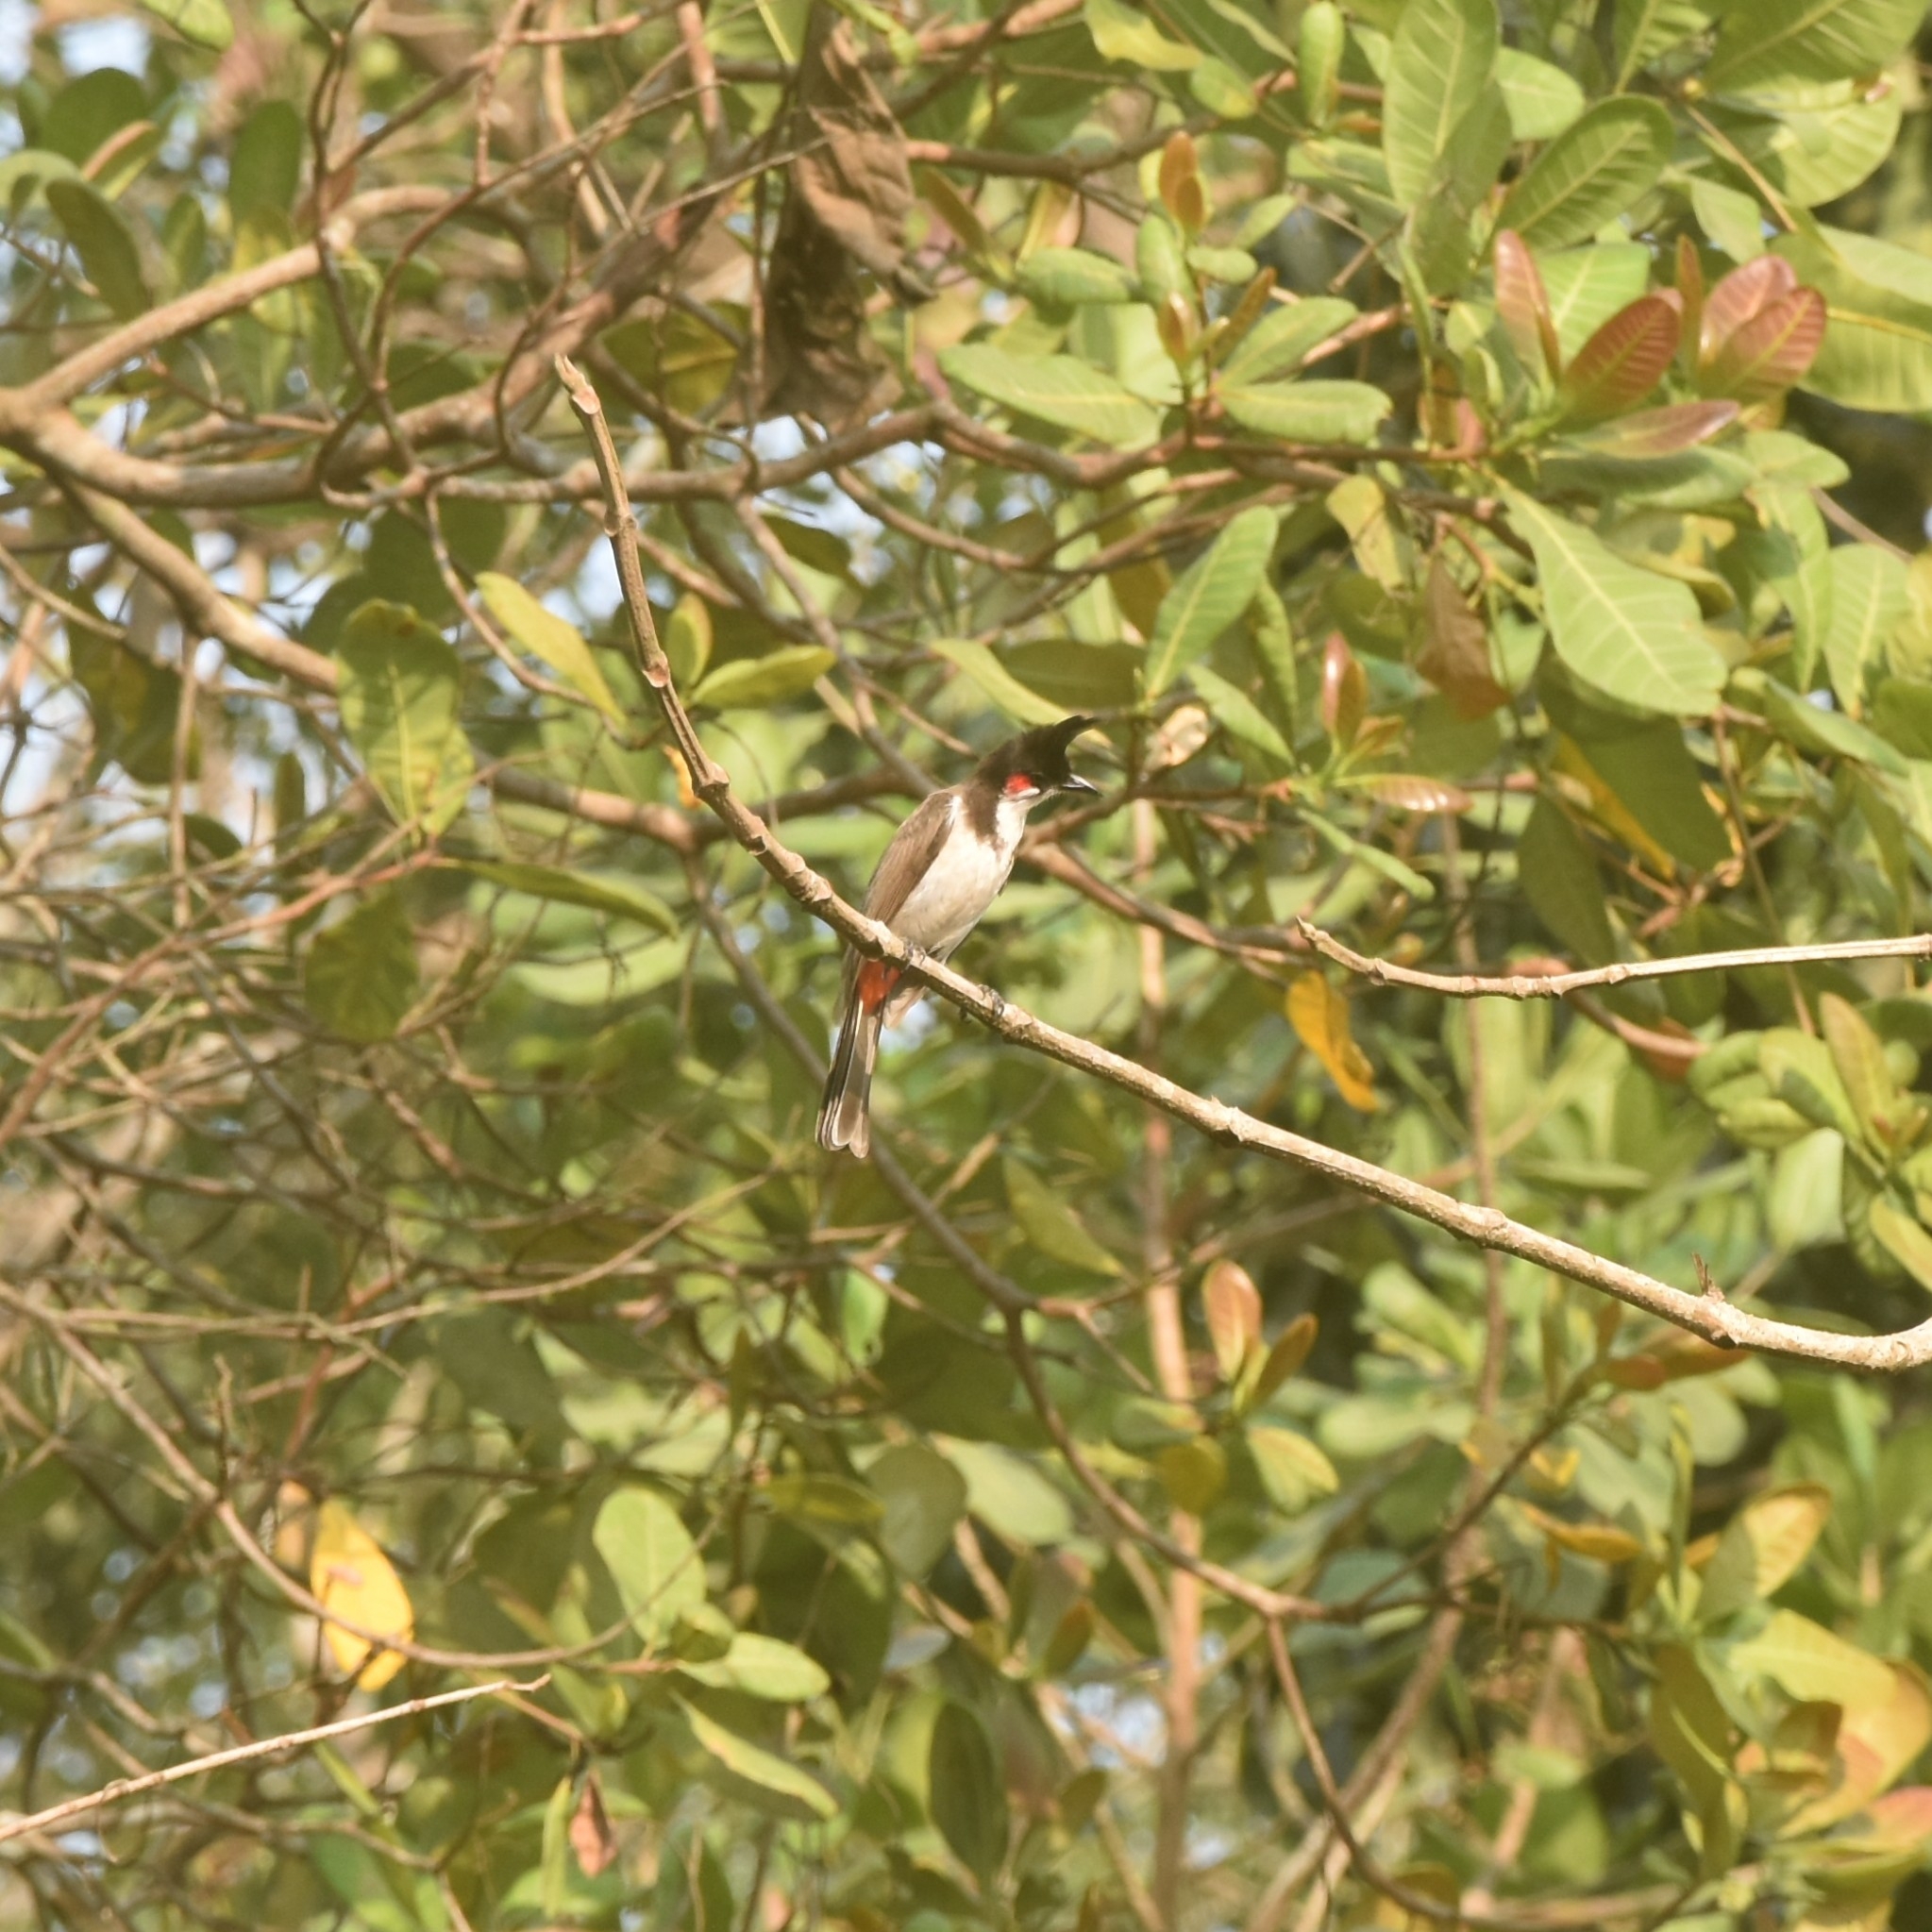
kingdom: Animalia
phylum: Chordata
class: Aves
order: Passeriformes
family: Pycnonotidae
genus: Pycnonotus
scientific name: Pycnonotus jocosus
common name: Red-whiskered bulbul
